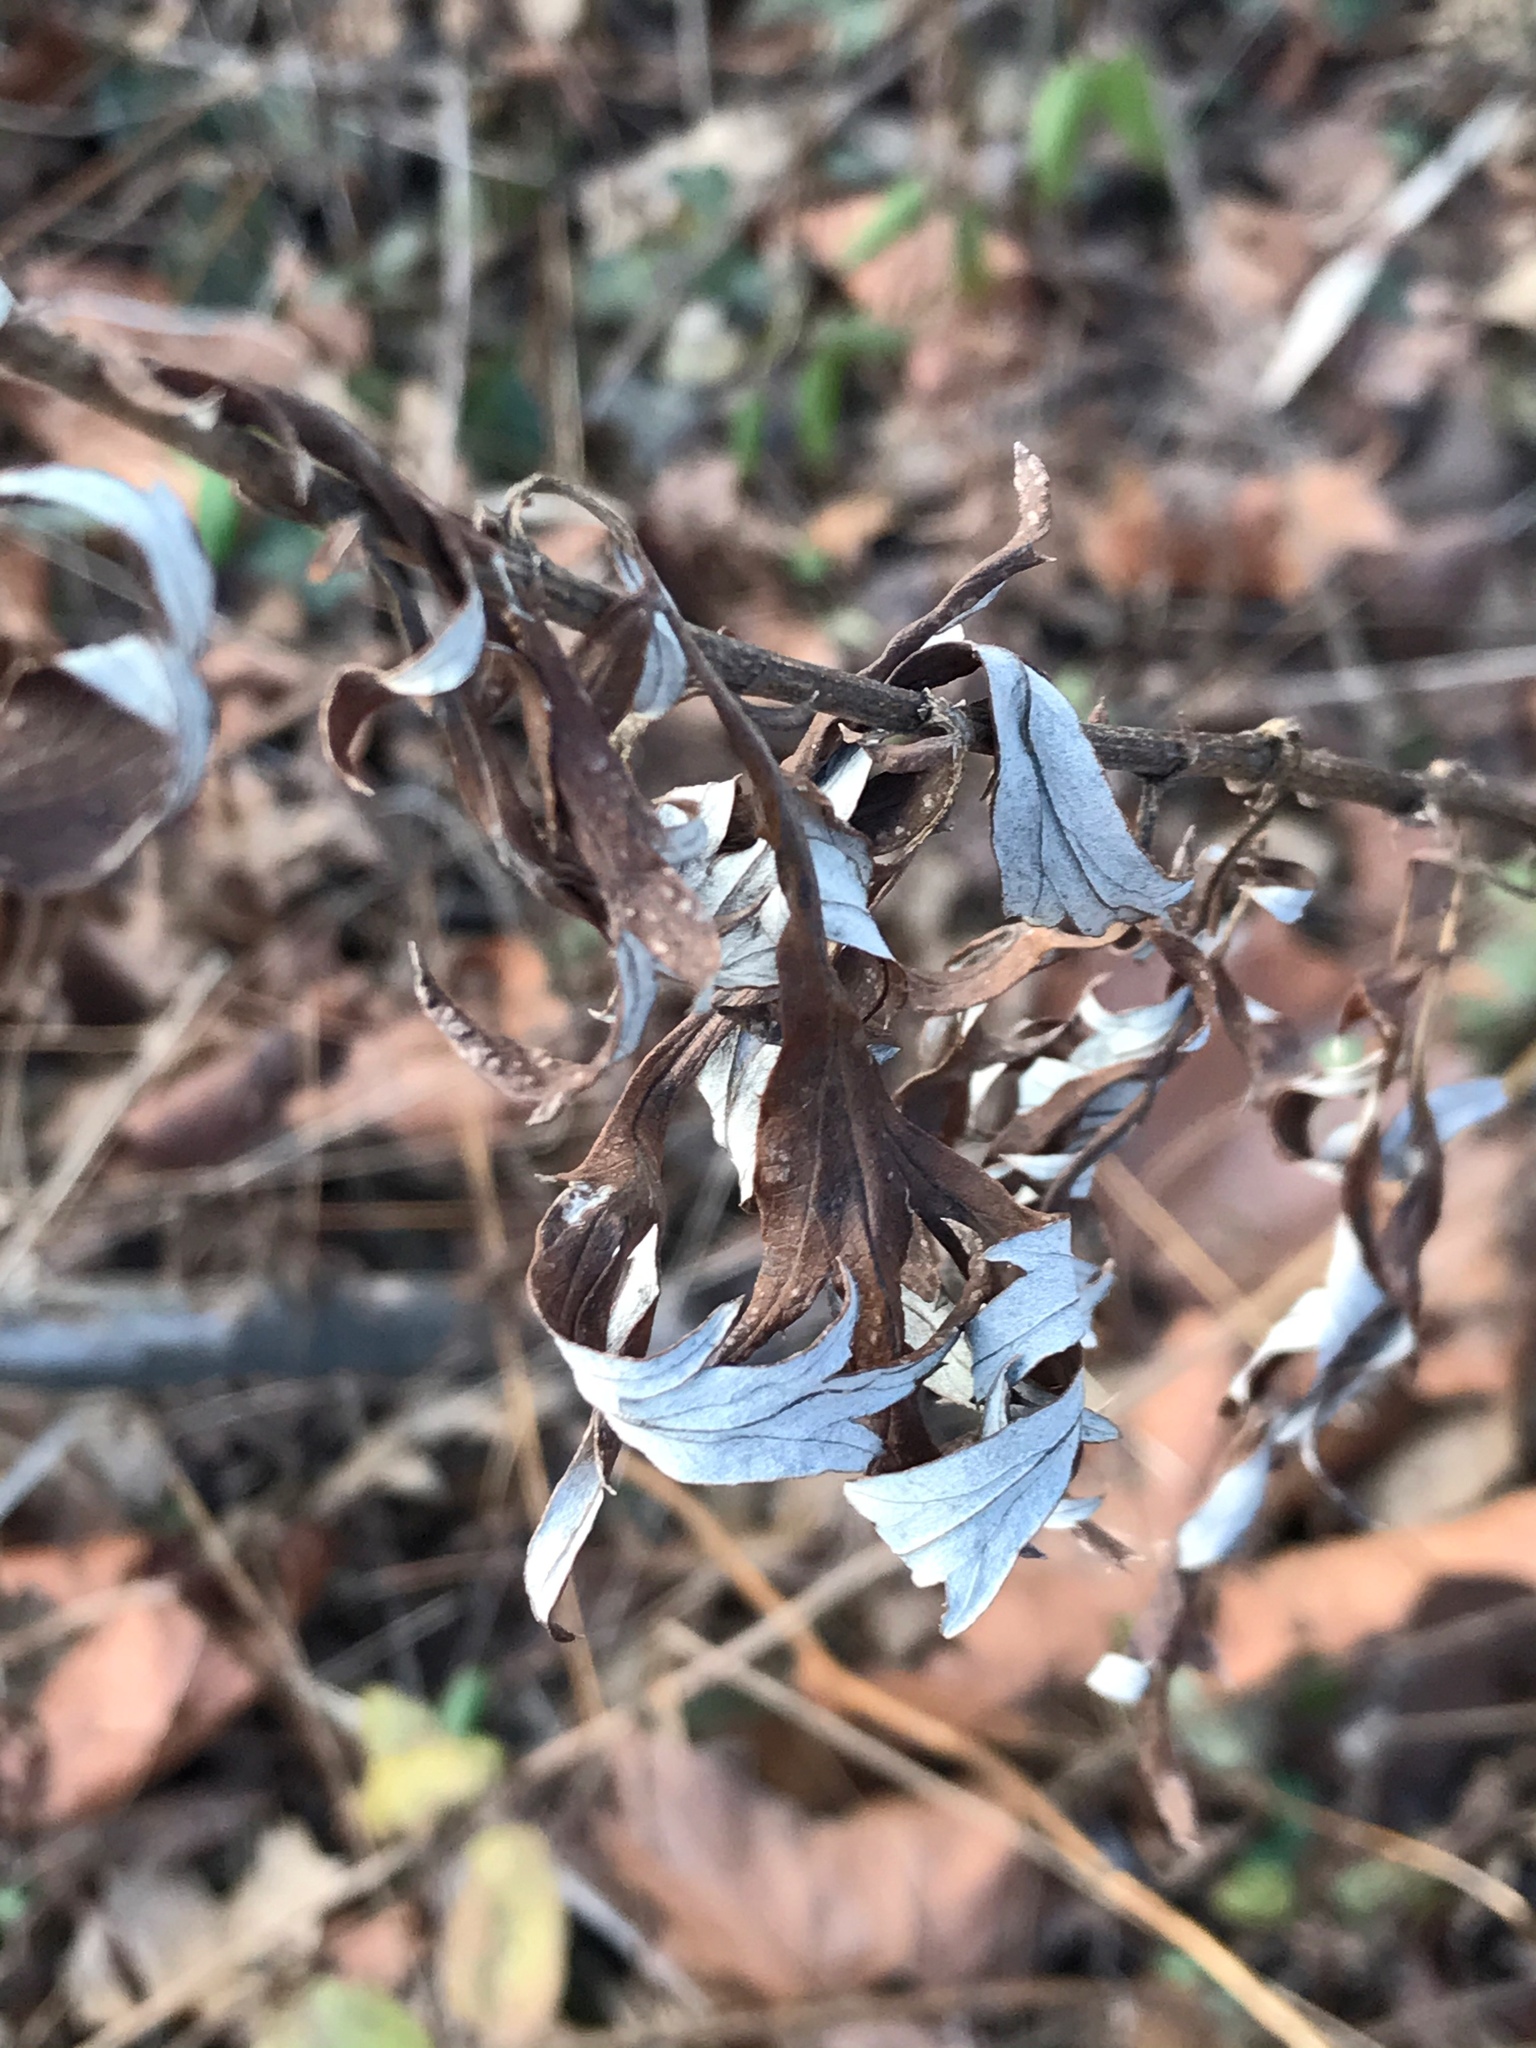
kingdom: Plantae
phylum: Tracheophyta
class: Magnoliopsida
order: Asterales
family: Asteraceae
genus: Artemisia
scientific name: Artemisia vulgaris
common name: Mugwort
